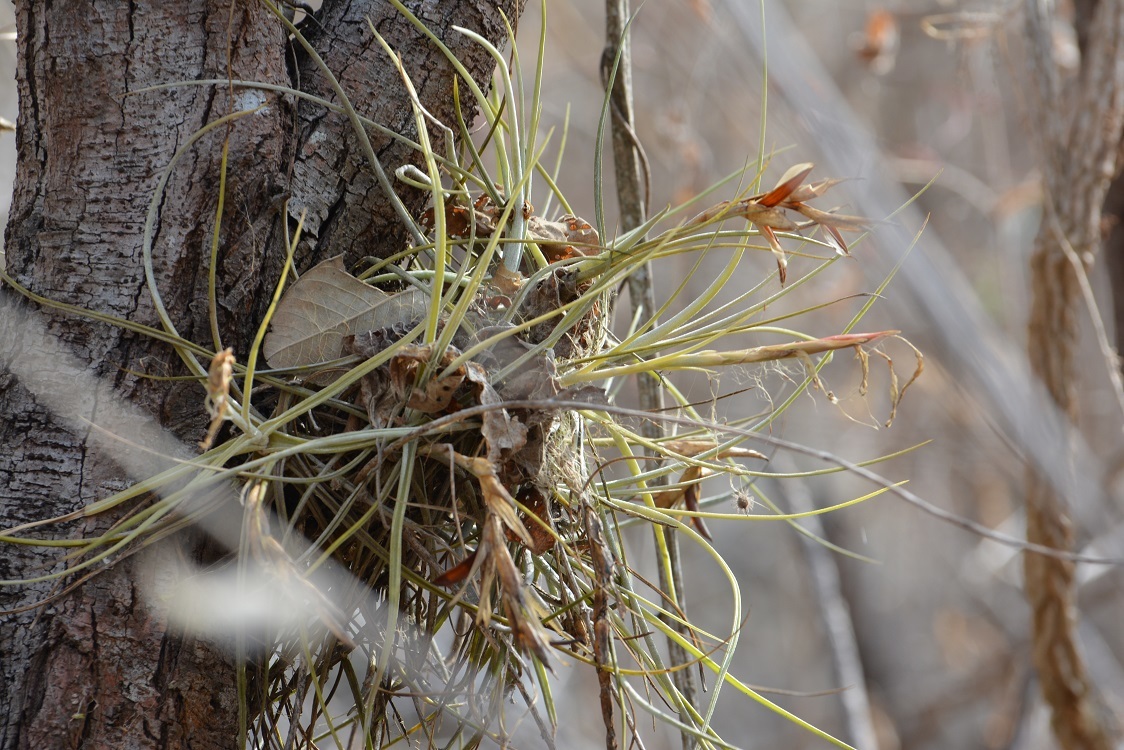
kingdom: Plantae
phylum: Tracheophyta
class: Liliopsida
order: Poales
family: Bromeliaceae
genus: Tillandsia
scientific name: Tillandsia schiedeana
